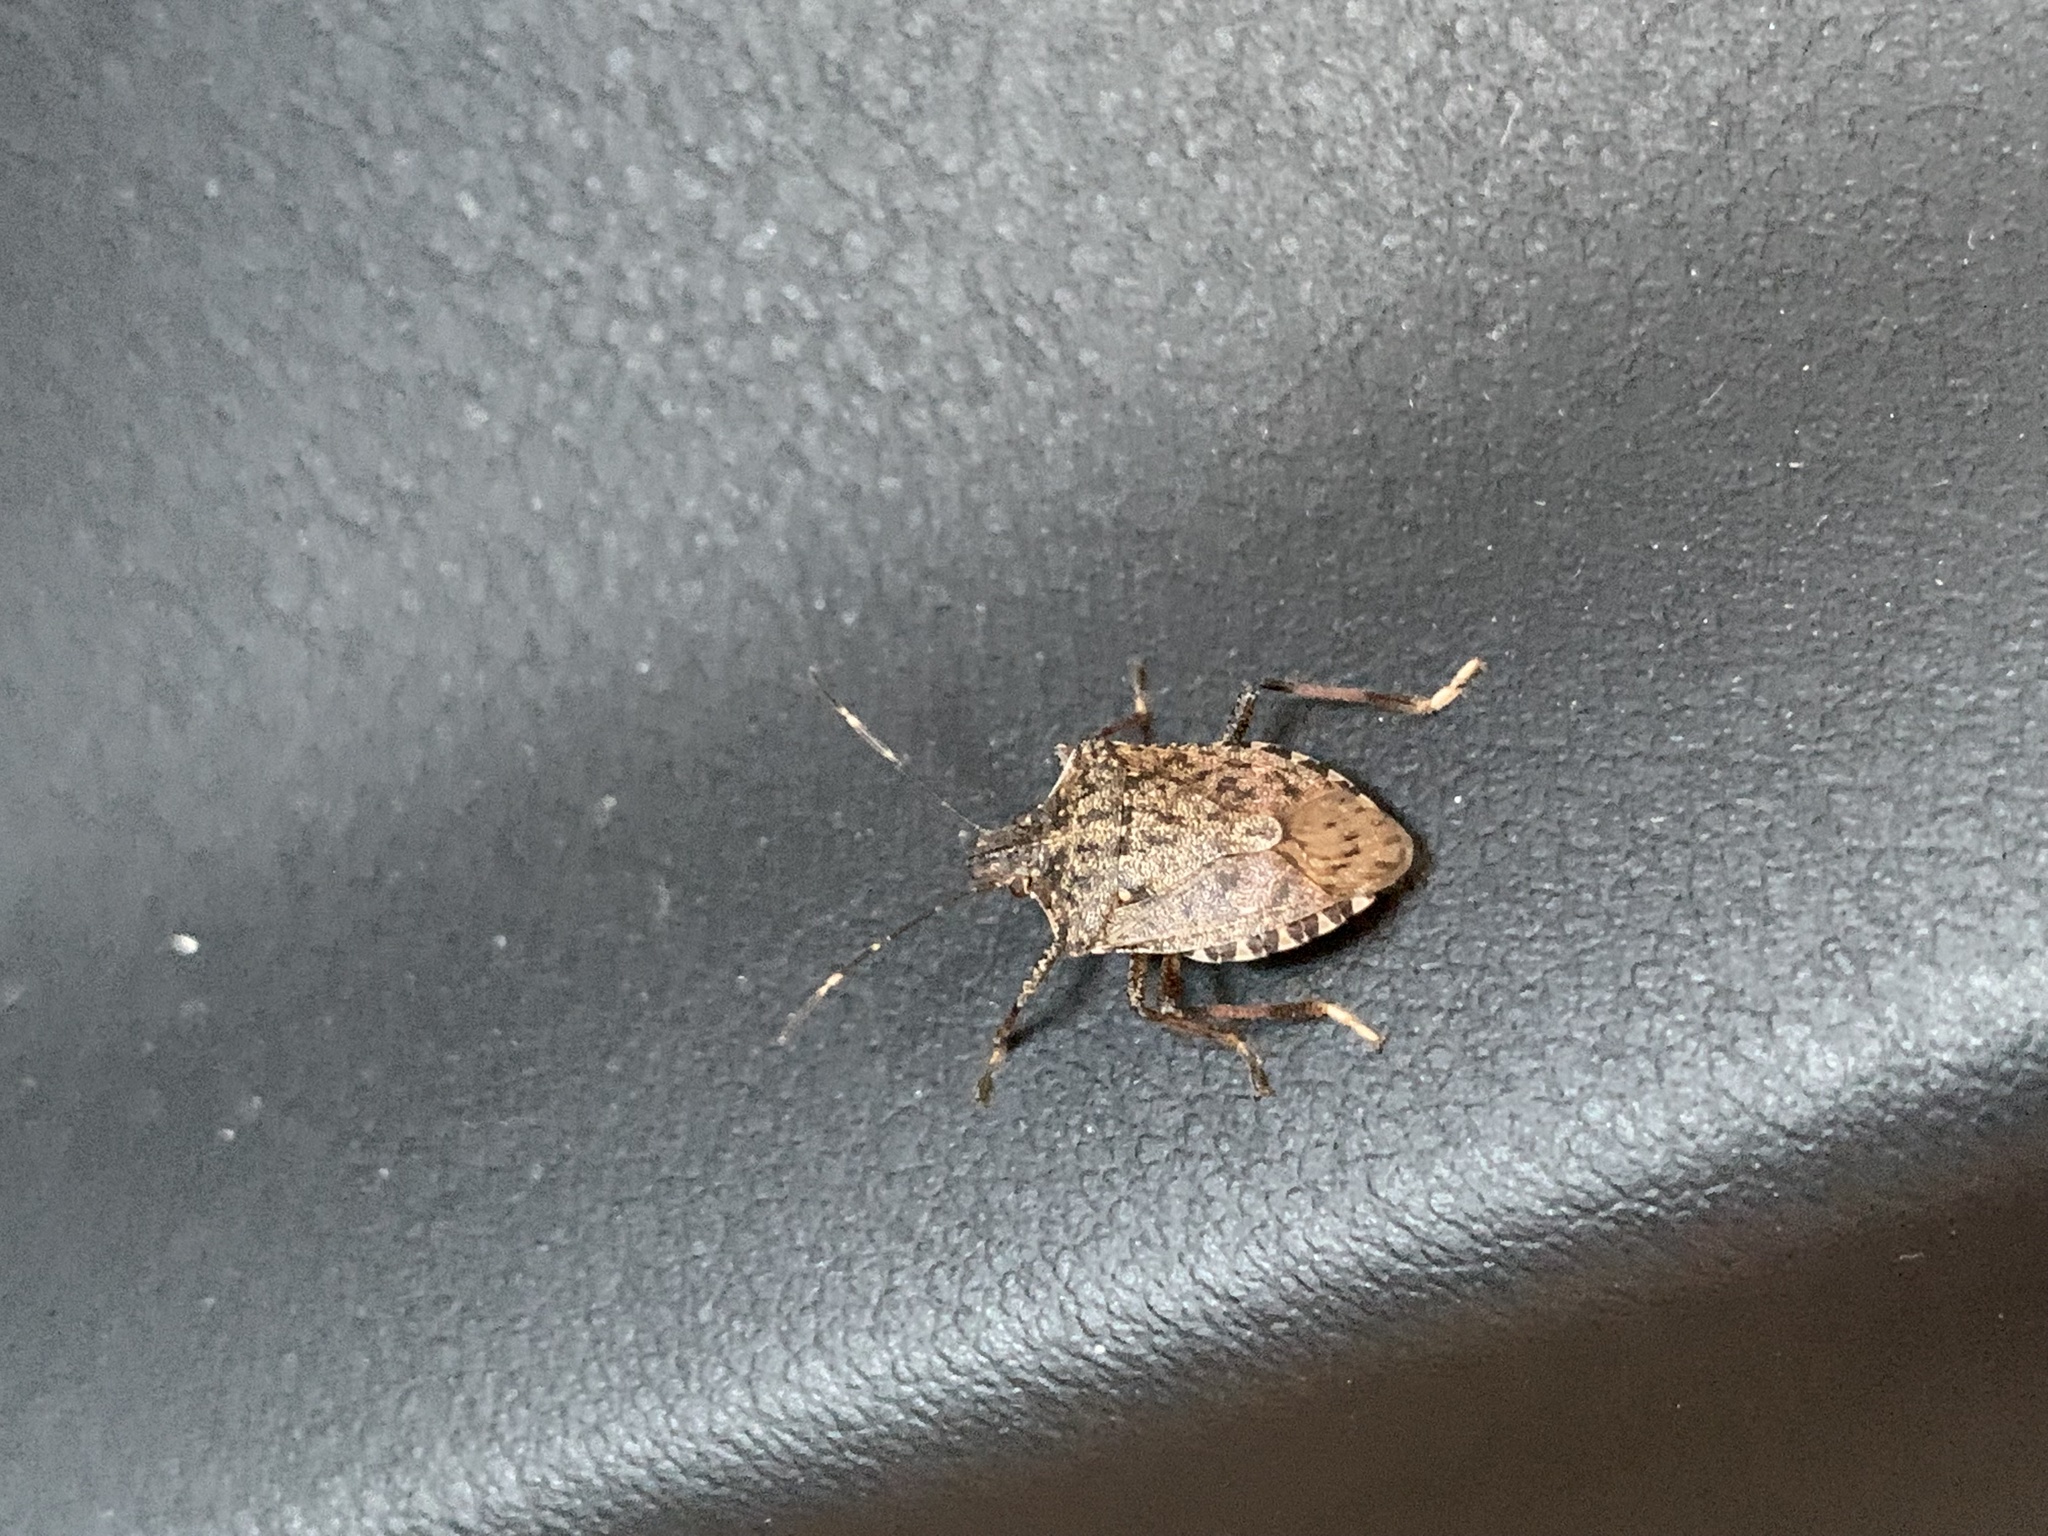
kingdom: Animalia
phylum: Arthropoda
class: Insecta
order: Hemiptera
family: Pentatomidae
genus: Halyomorpha
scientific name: Halyomorpha halys
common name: Brown marmorated stink bug
